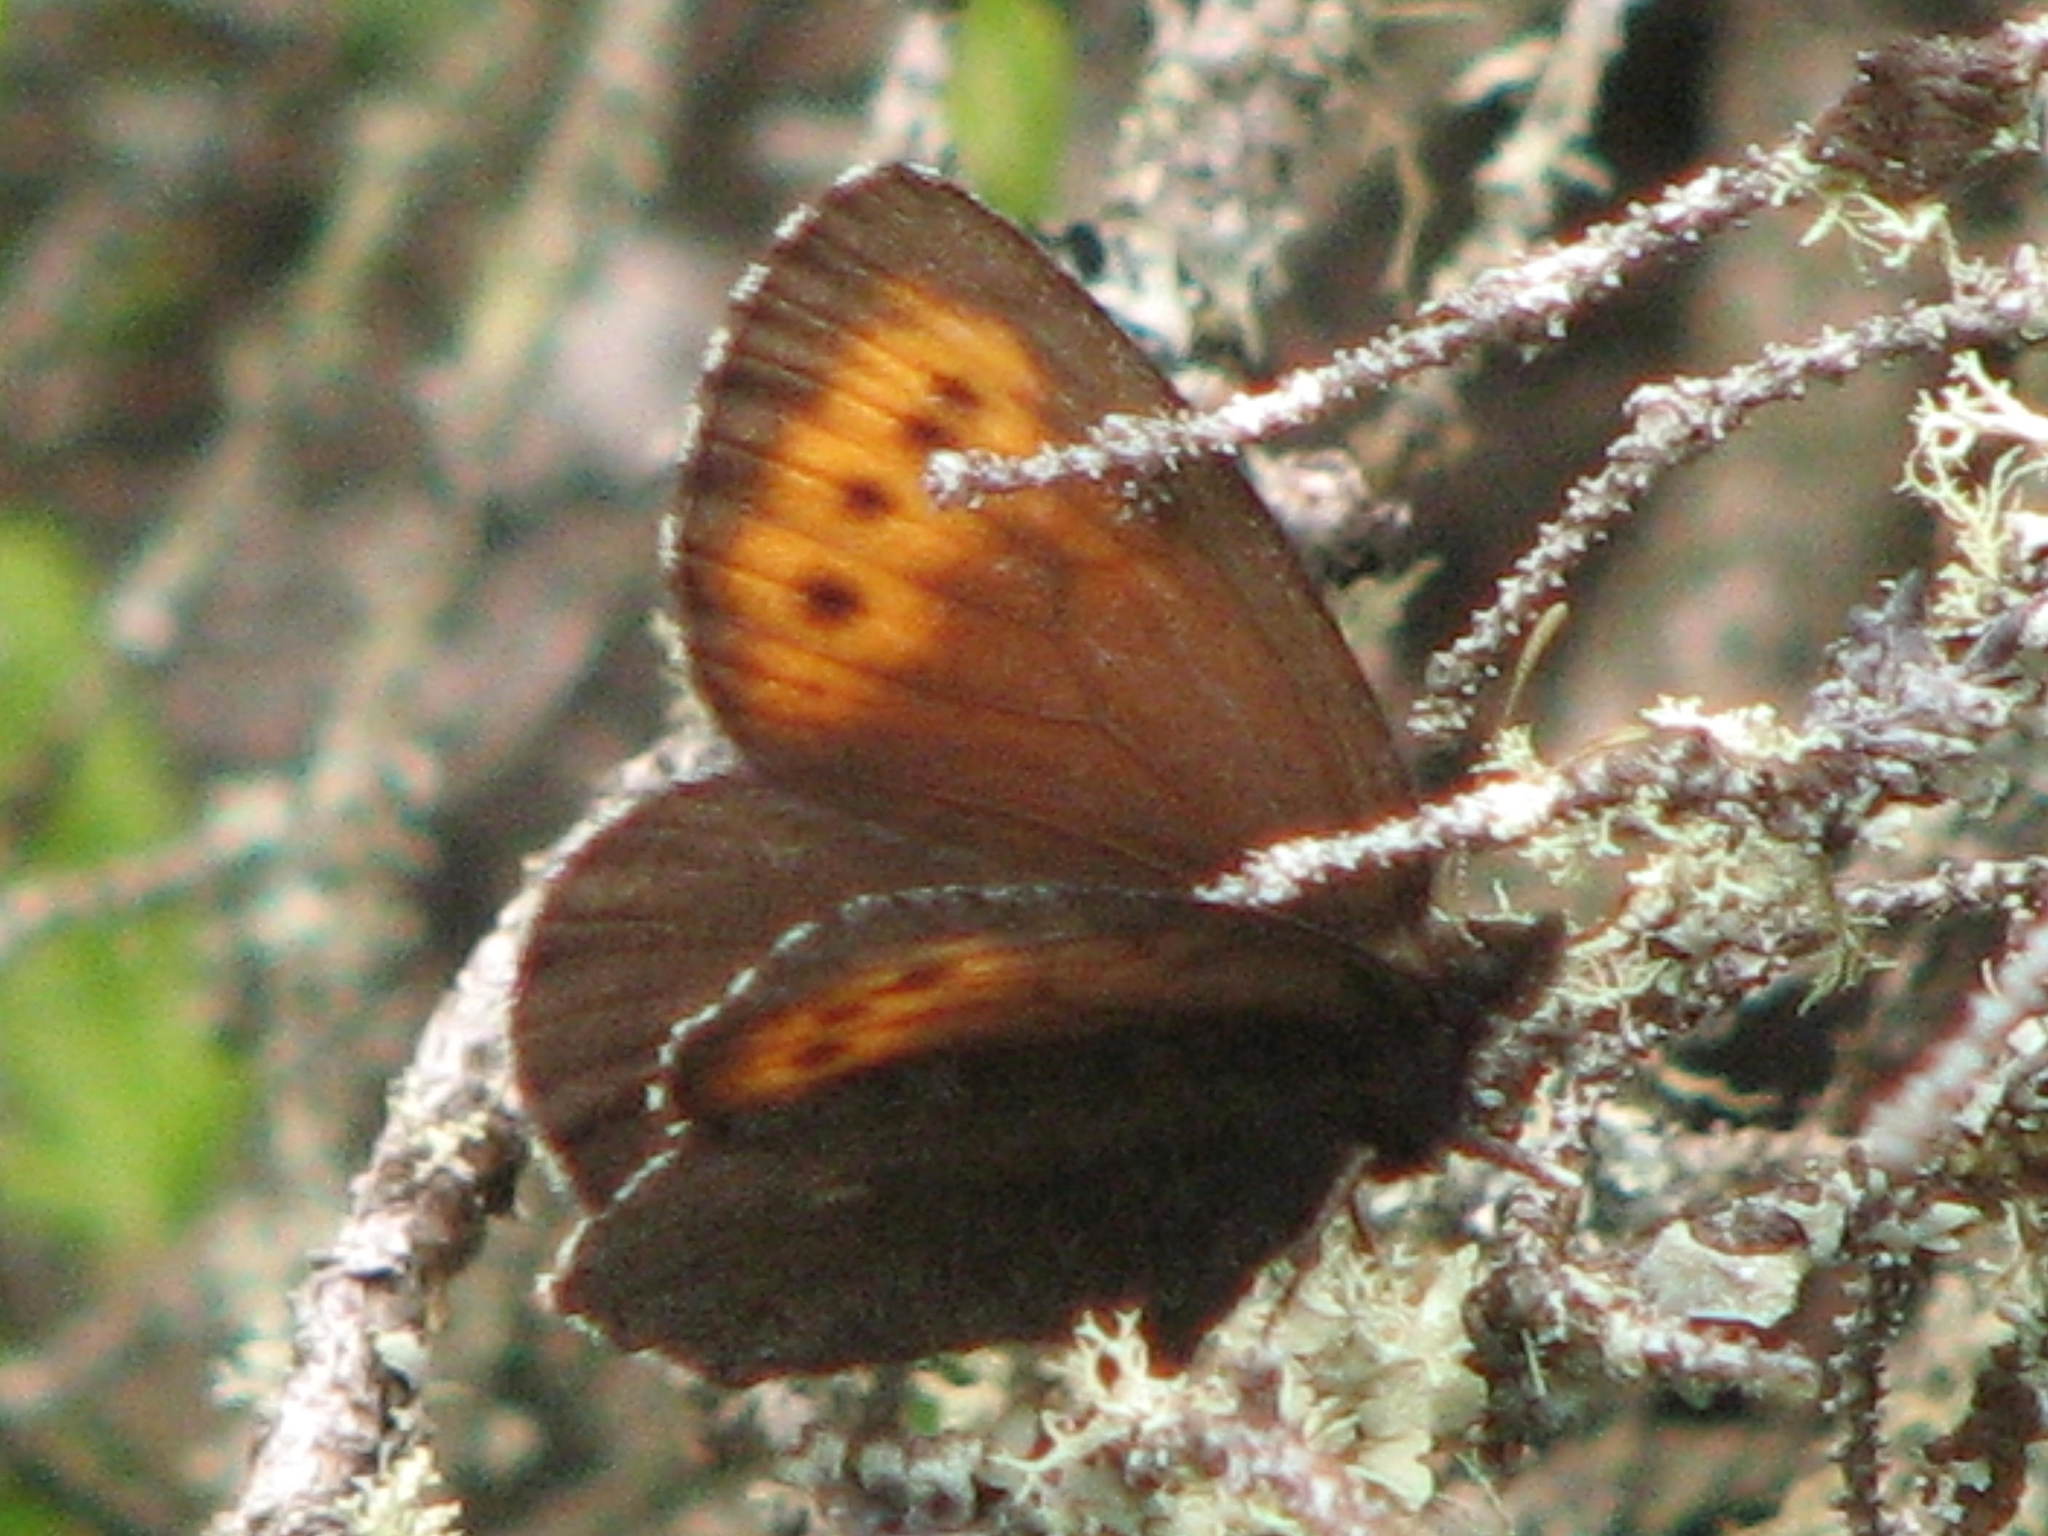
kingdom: Animalia
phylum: Arthropoda
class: Insecta
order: Lepidoptera
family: Nymphalidae
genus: Erebia
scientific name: Erebia disa
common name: Arctic ringlet
